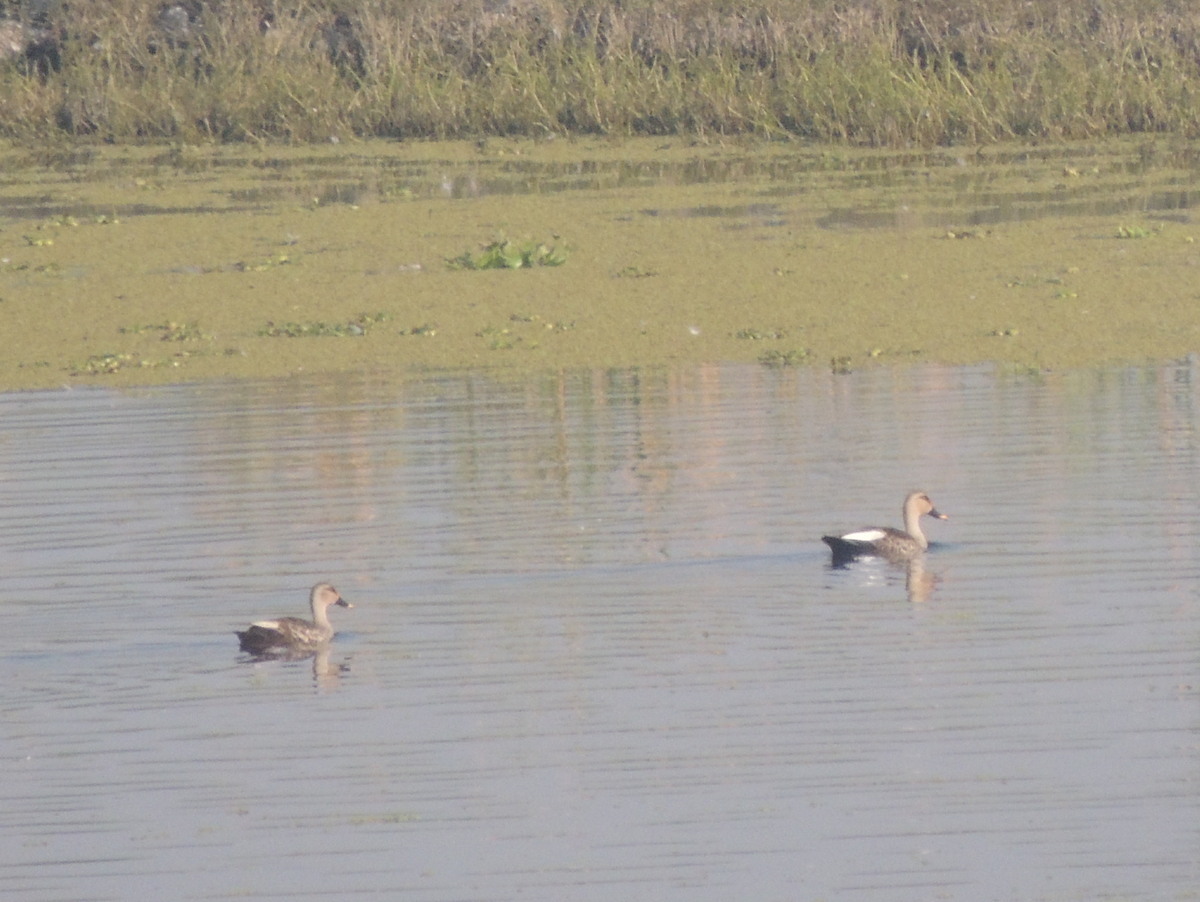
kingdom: Animalia
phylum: Chordata
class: Aves
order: Anseriformes
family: Anatidae
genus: Anas
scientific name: Anas poecilorhyncha
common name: Indian spot-billed duck
